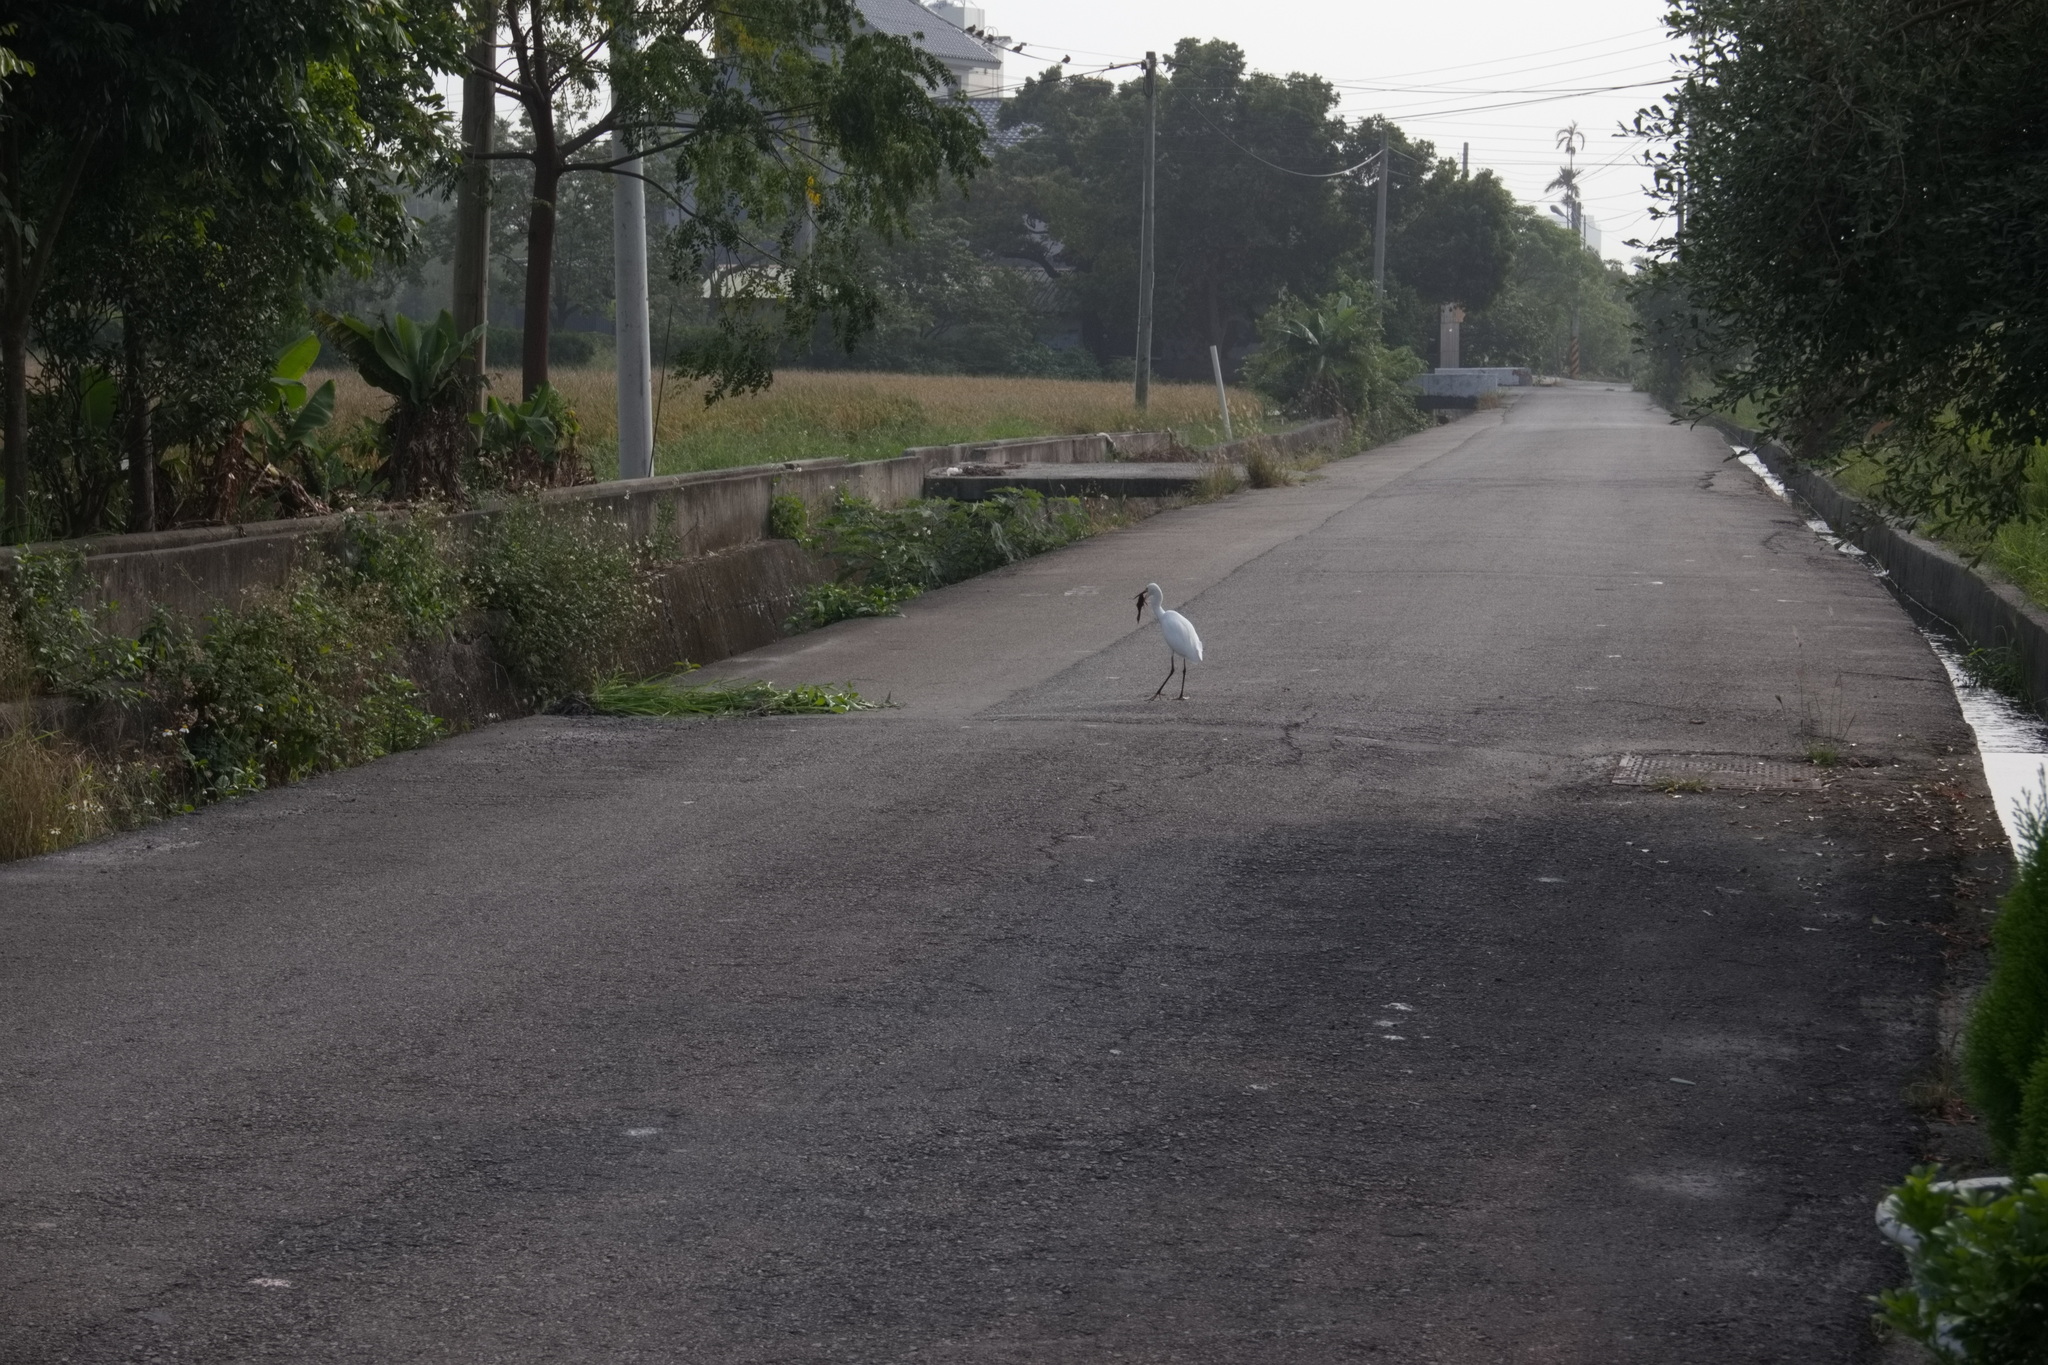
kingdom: Animalia
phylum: Chordata
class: Aves
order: Pelecaniformes
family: Ardeidae
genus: Egretta
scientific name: Egretta garzetta
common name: Little egret
